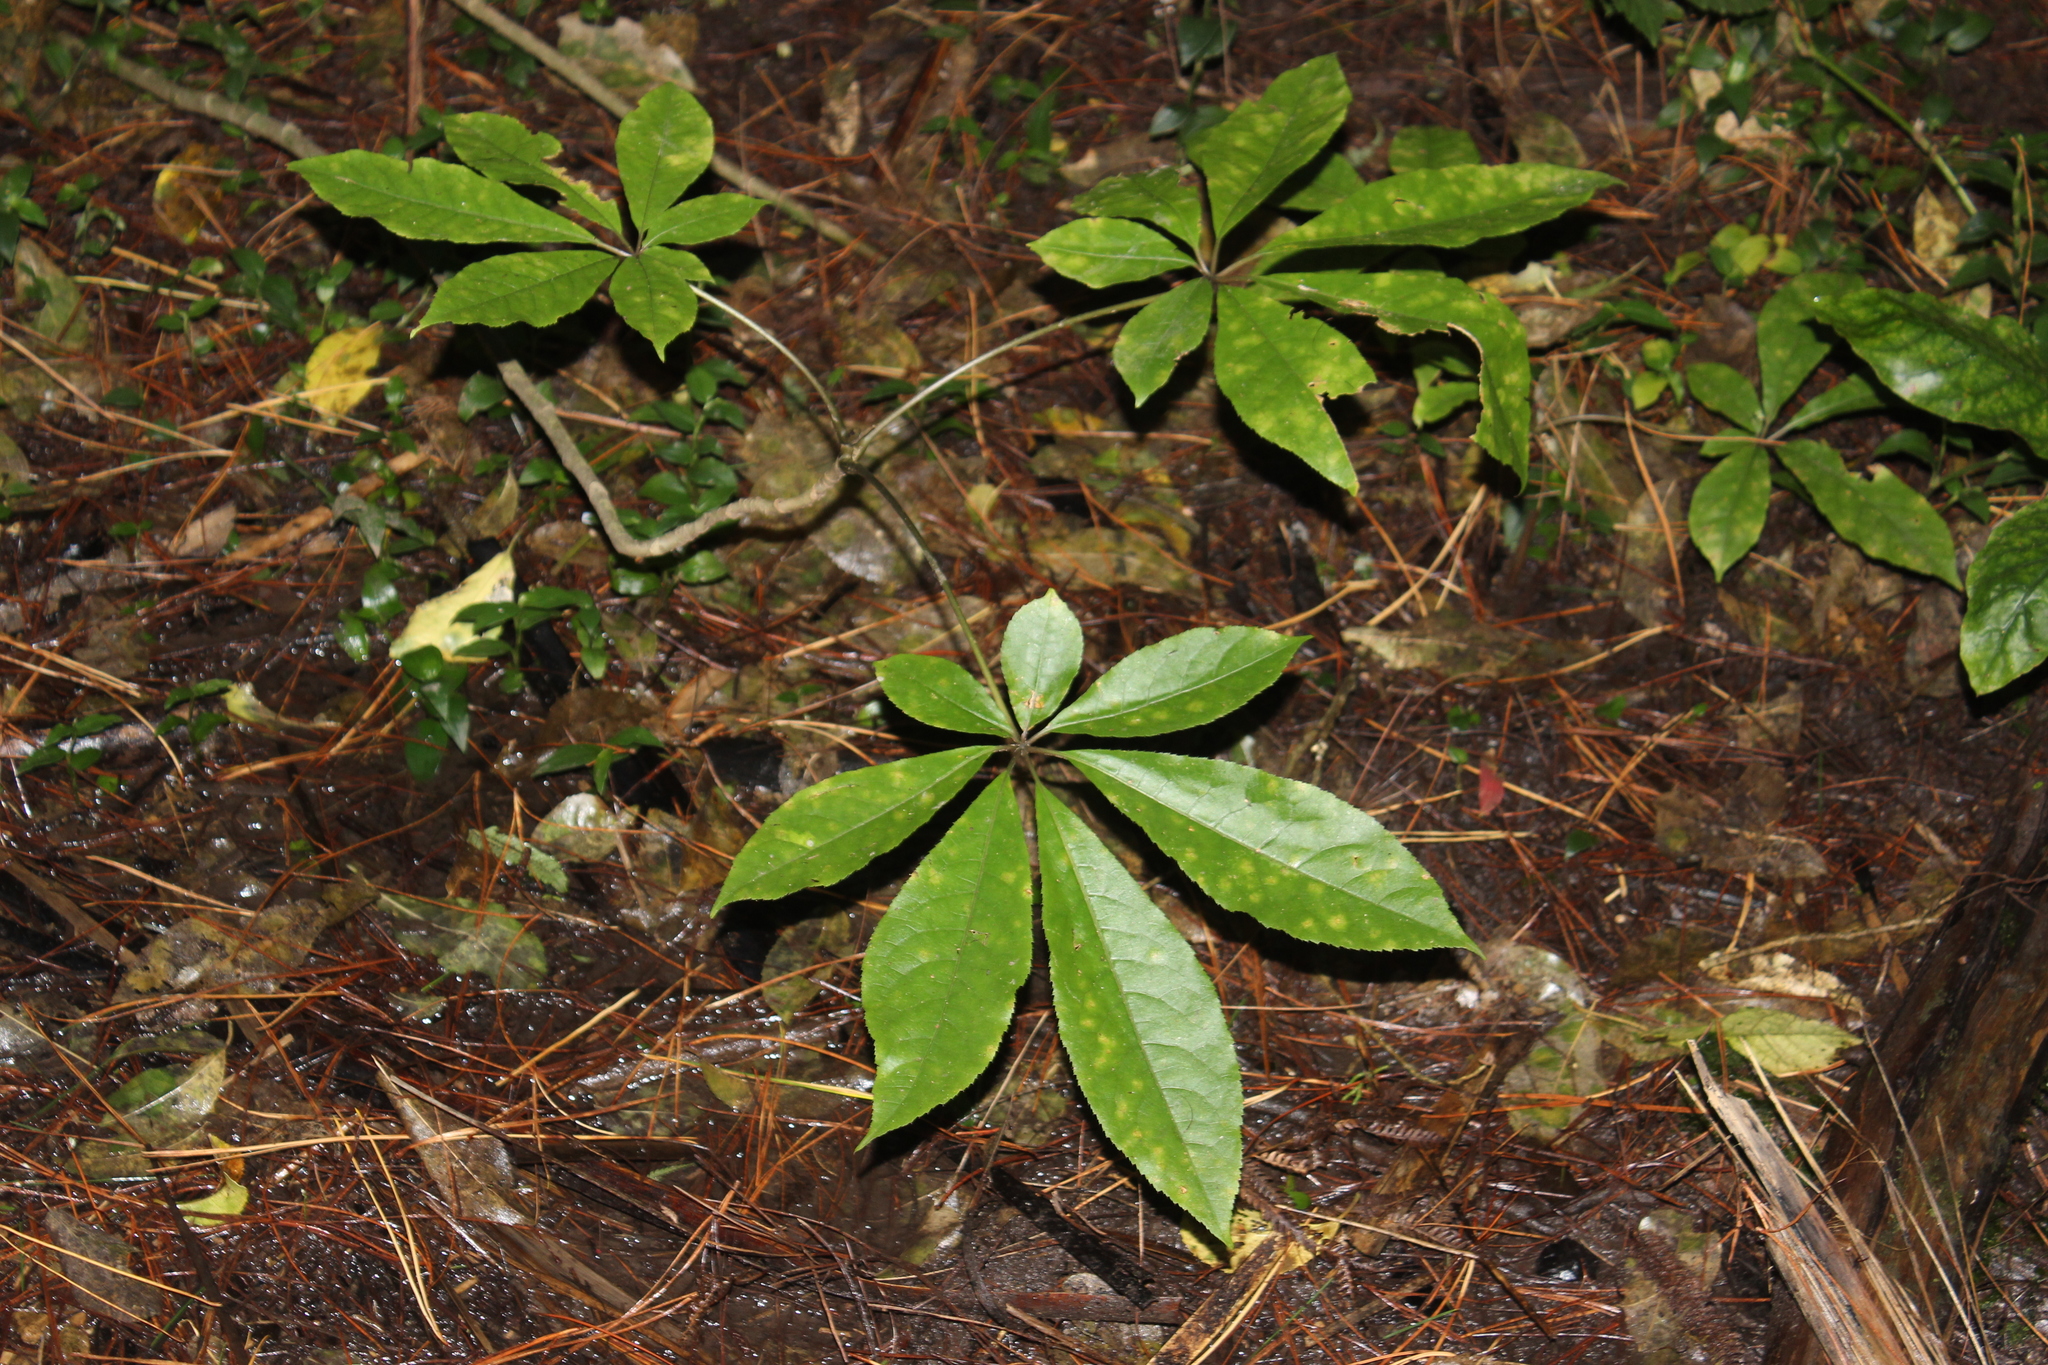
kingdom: Plantae
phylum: Tracheophyta
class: Magnoliopsida
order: Apiales
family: Araliaceae
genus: Schefflera
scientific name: Schefflera digitata
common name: Pate
